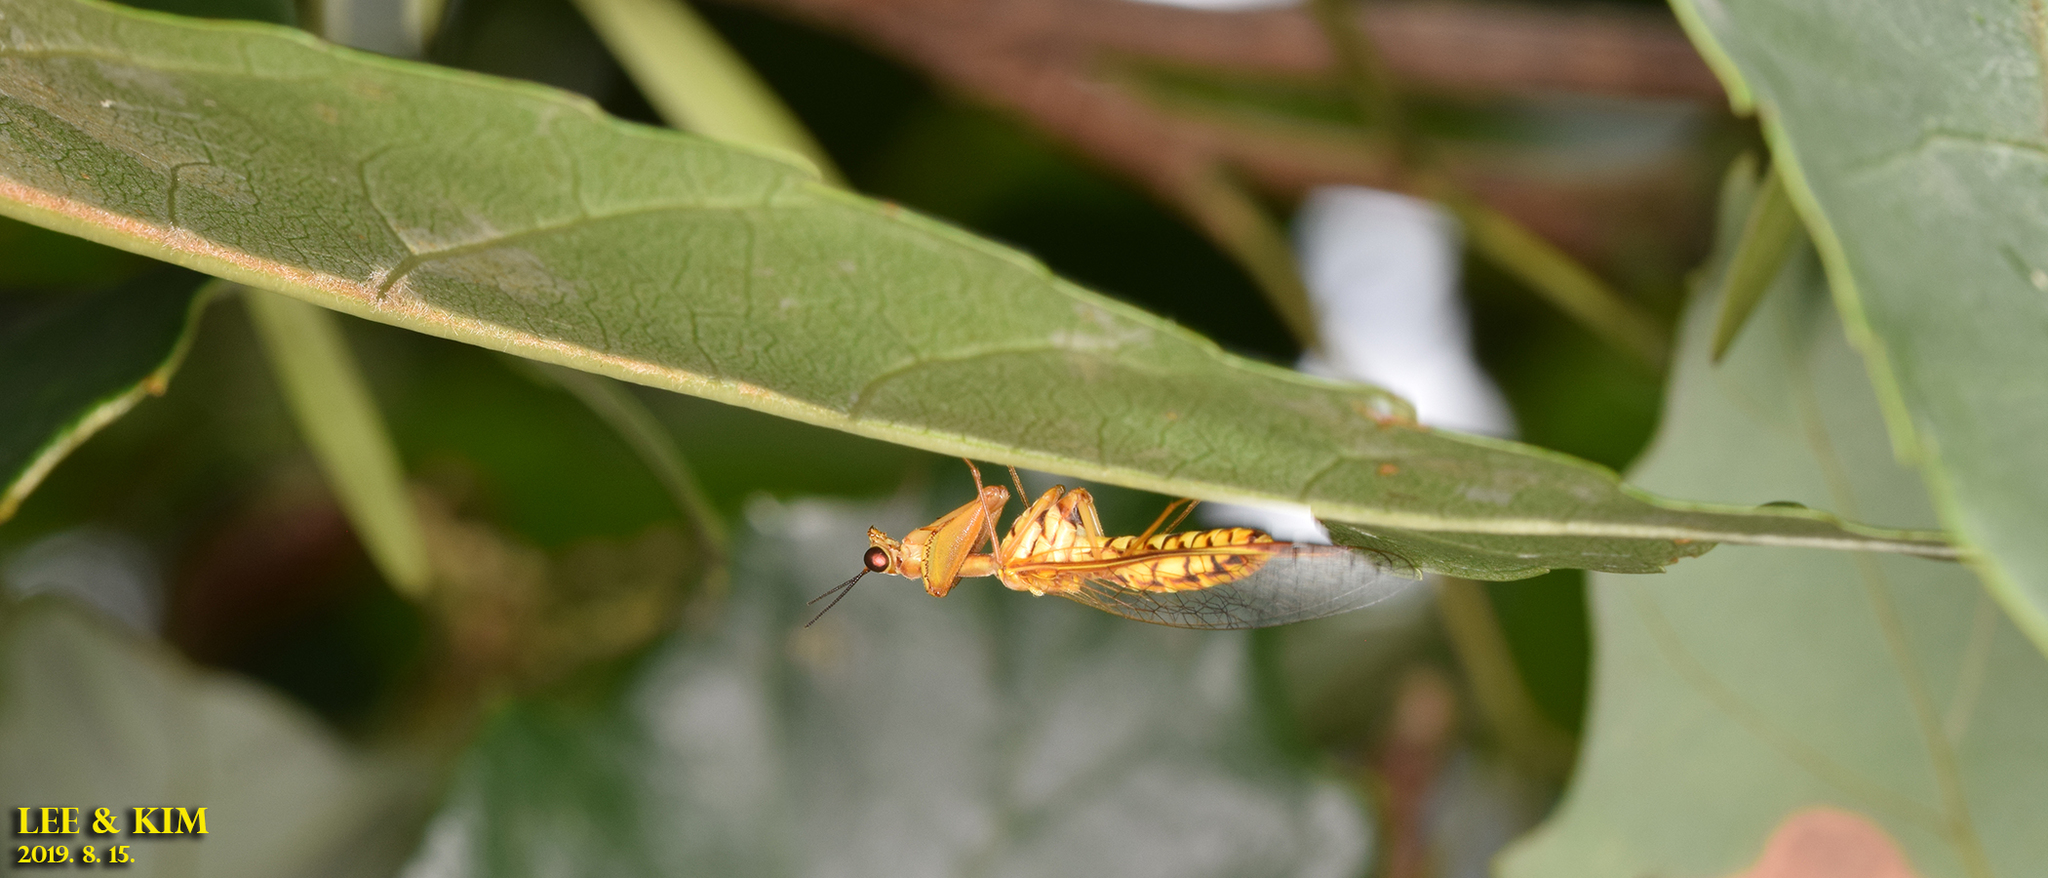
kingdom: Animalia
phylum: Arthropoda
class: Insecta
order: Neuroptera
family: Mantispidae
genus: Eumantispa
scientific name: Eumantispa harmandi
